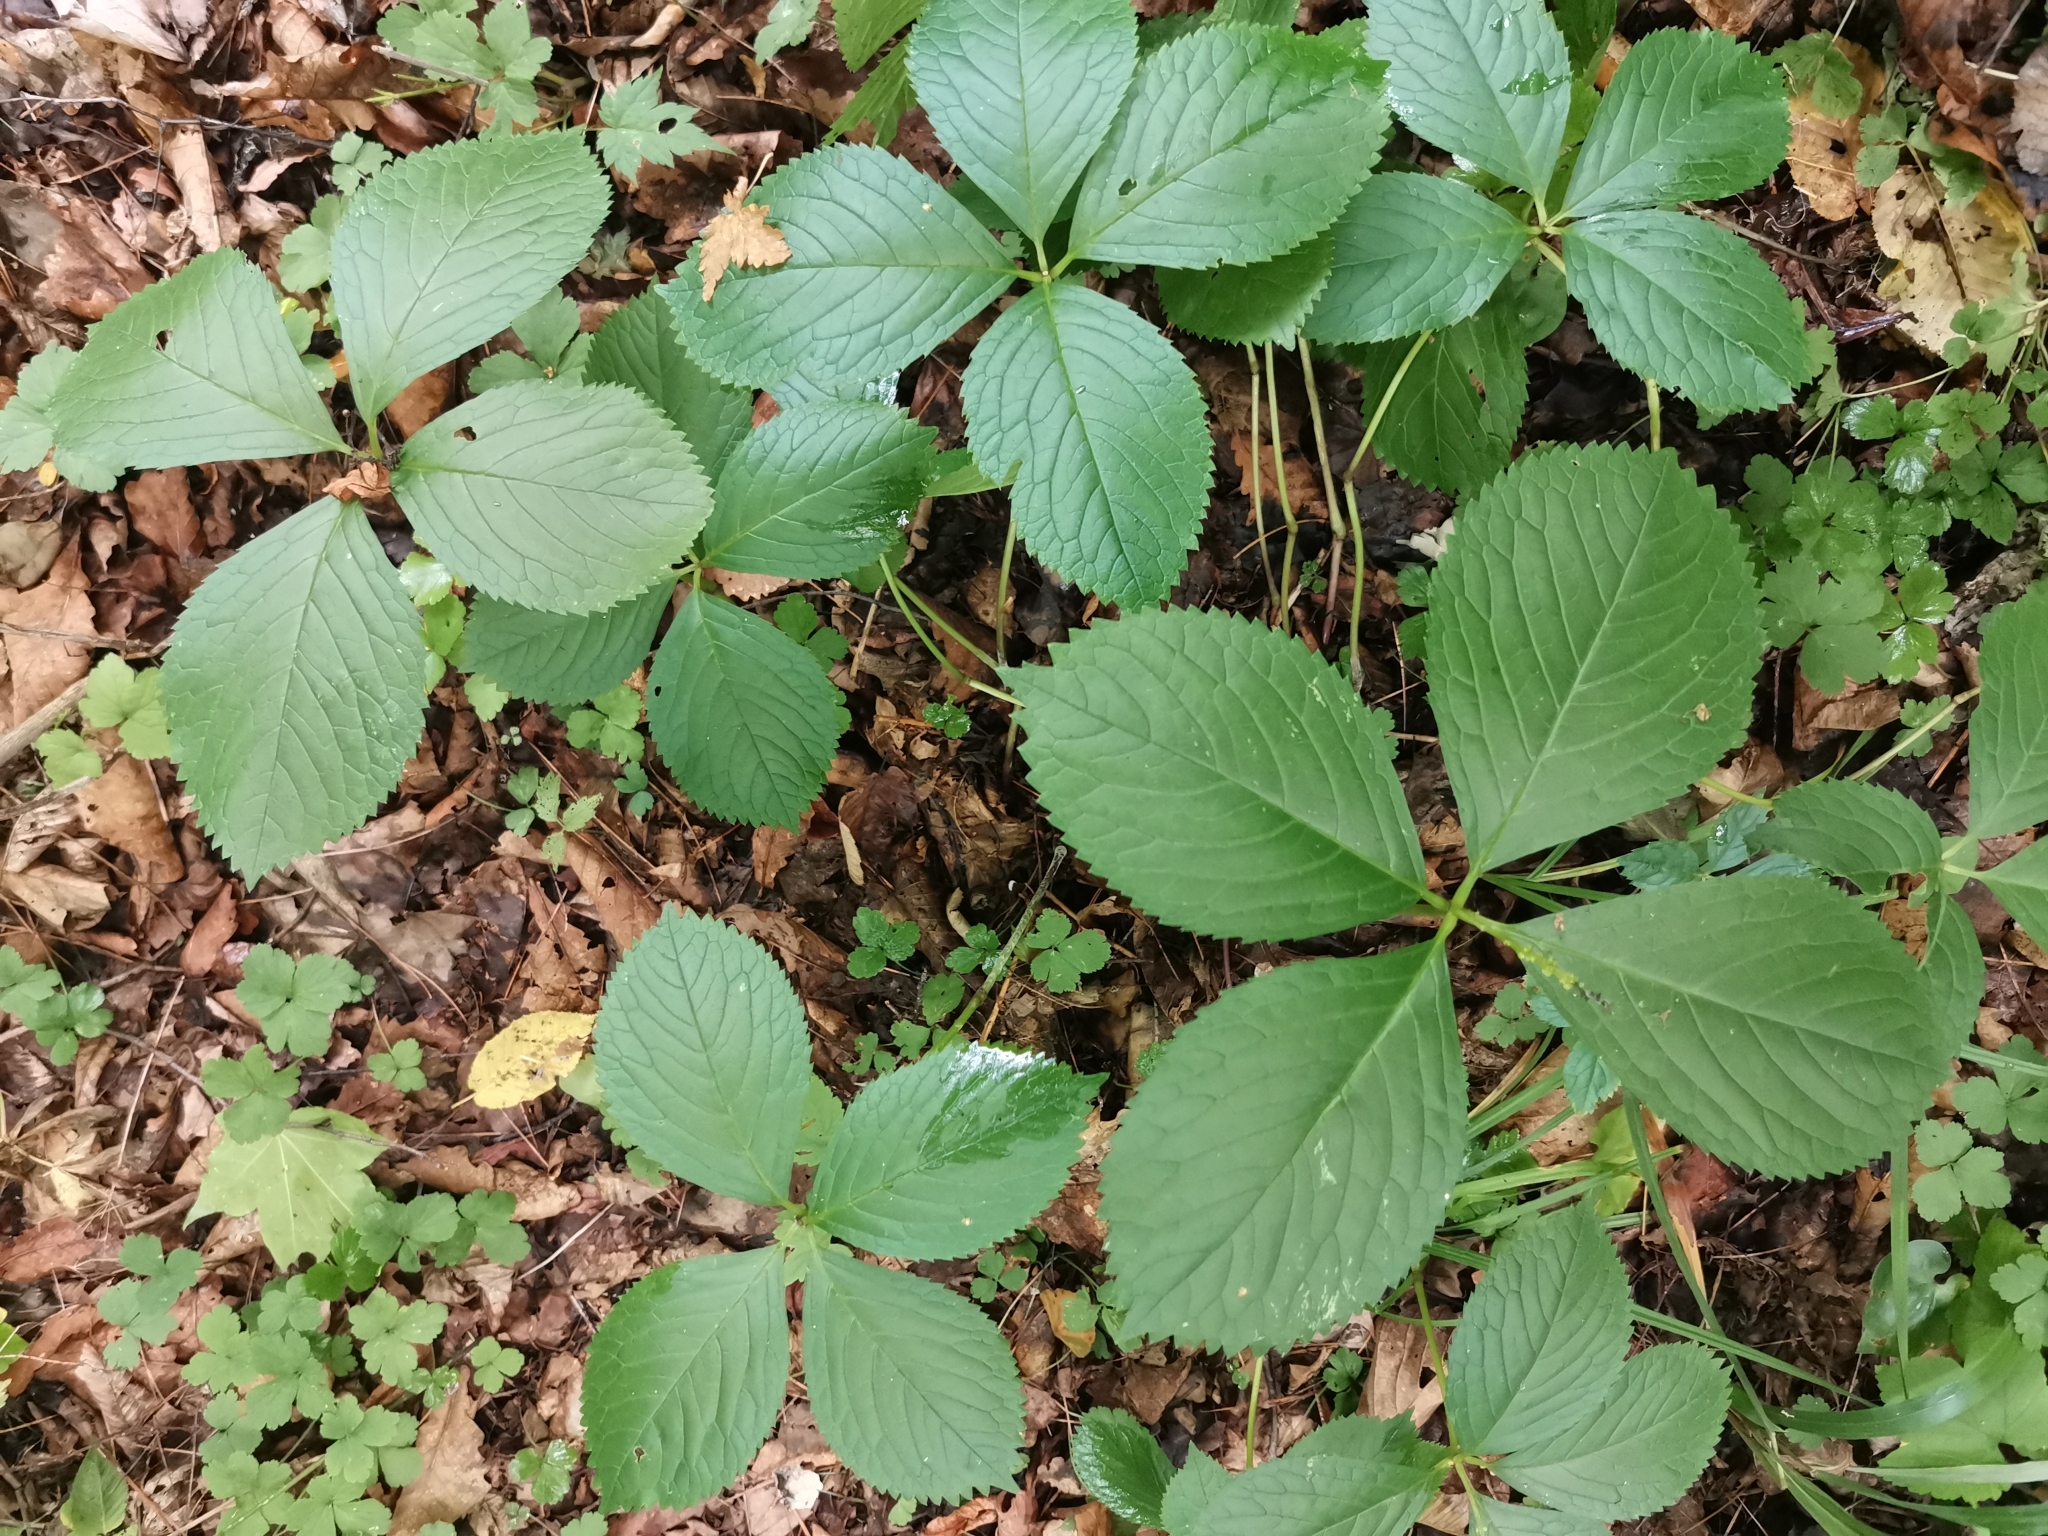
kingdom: Plantae
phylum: Tracheophyta
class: Magnoliopsida
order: Chloranthales
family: Chloranthaceae
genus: Chloranthus
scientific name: Chloranthus quadrifolius
